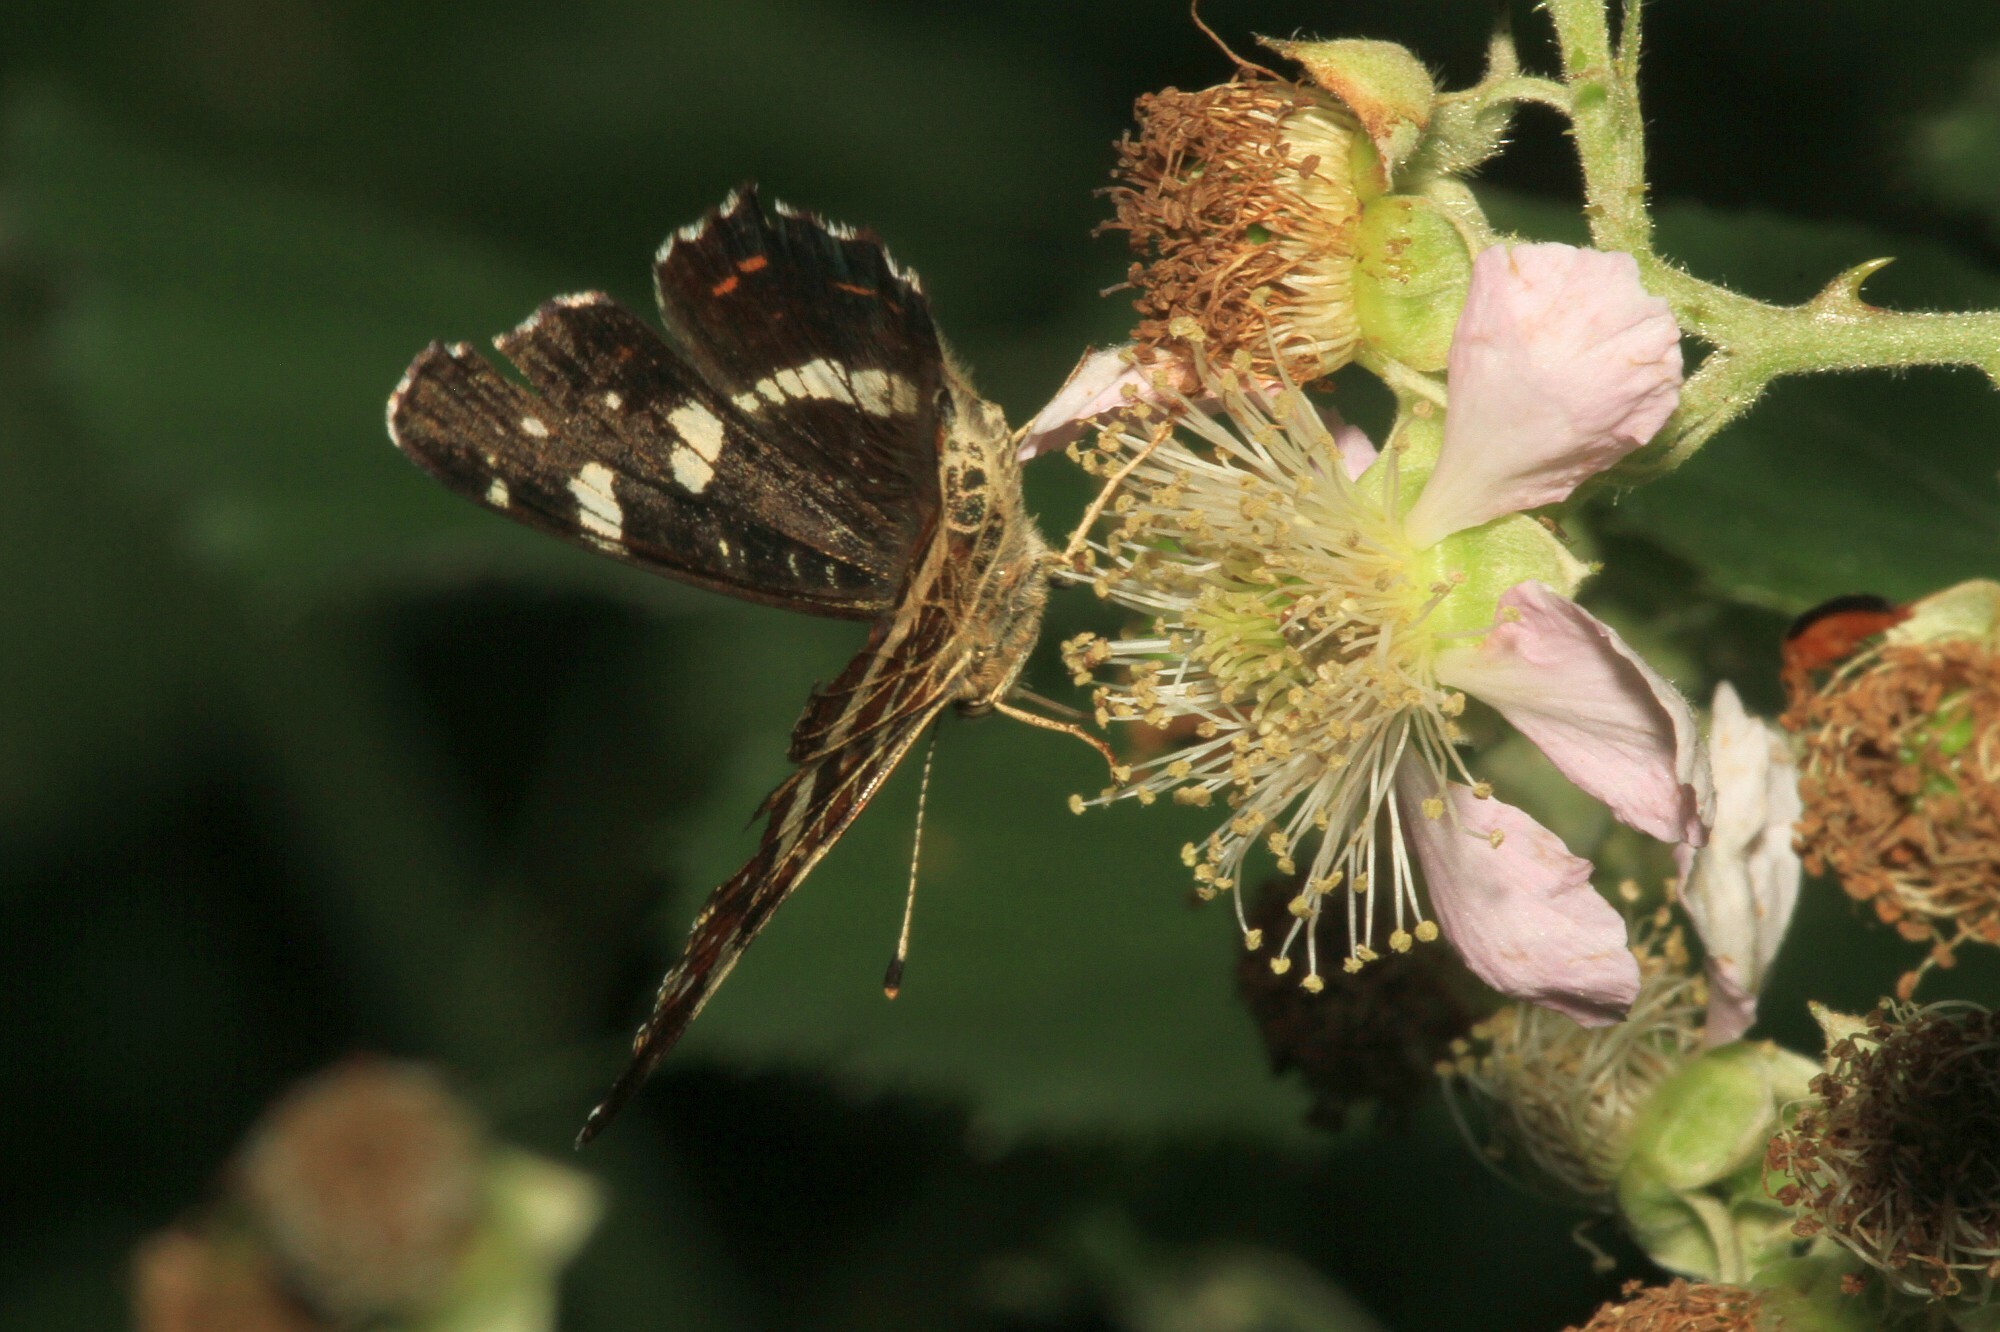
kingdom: Animalia
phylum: Arthropoda
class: Insecta
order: Lepidoptera
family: Nymphalidae
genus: Araschnia
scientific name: Araschnia levana
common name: Map butterfly
